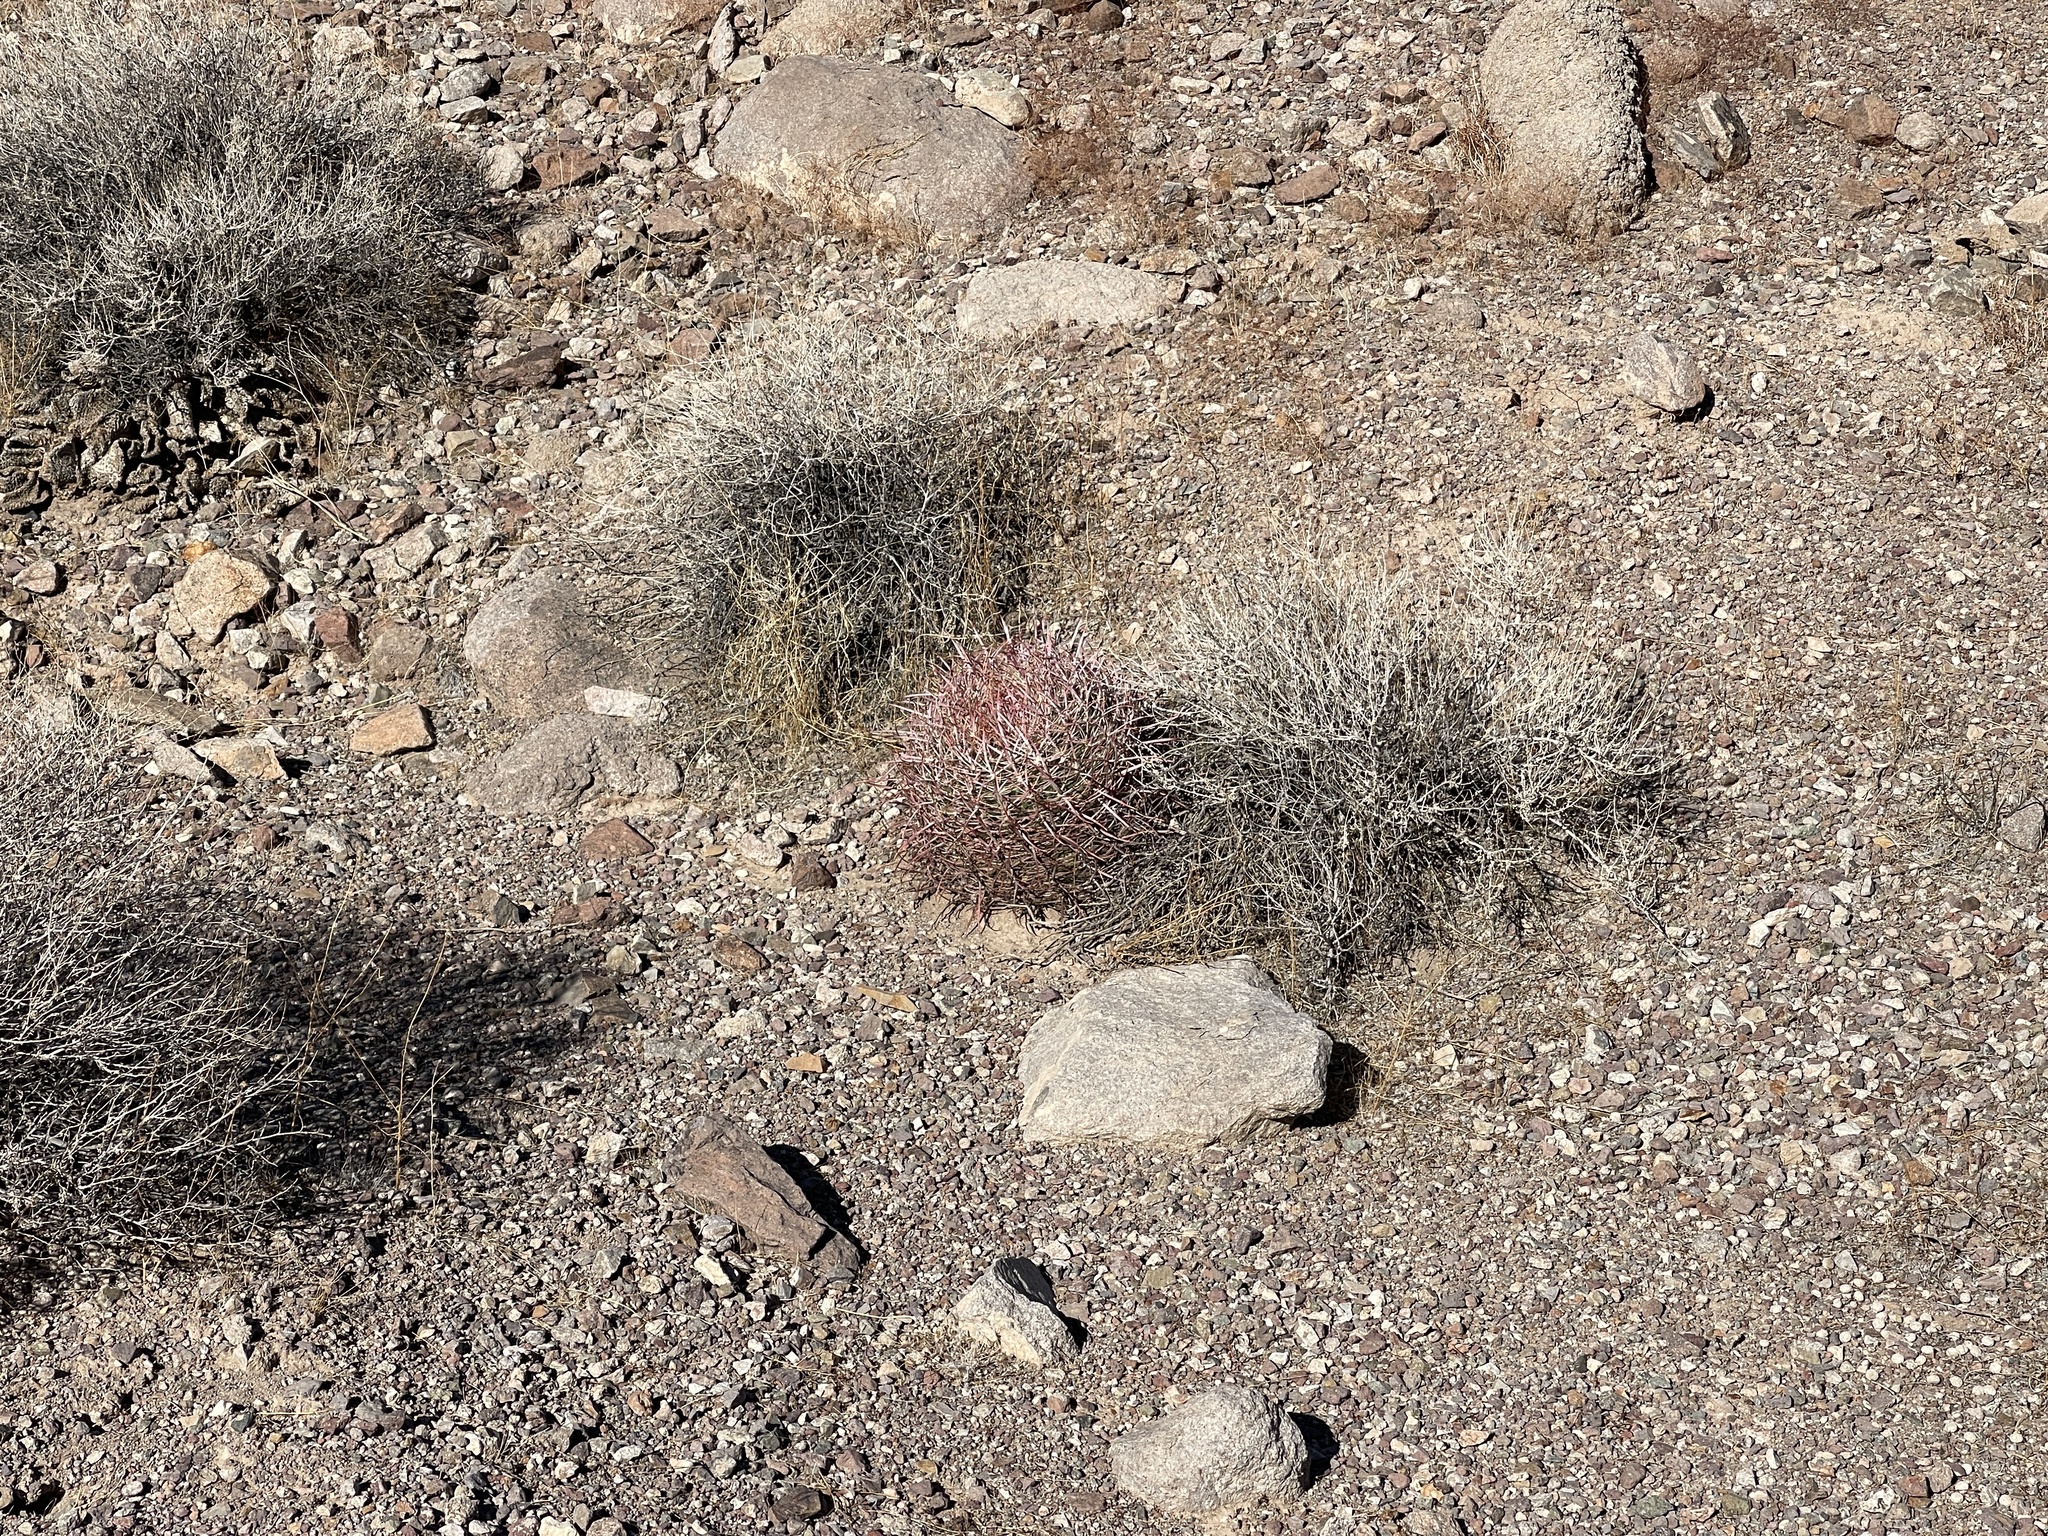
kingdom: Plantae
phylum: Tracheophyta
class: Magnoliopsida
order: Caryophyllales
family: Cactaceae
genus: Ferocactus
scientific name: Ferocactus cylindraceus
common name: California barrel cactus
